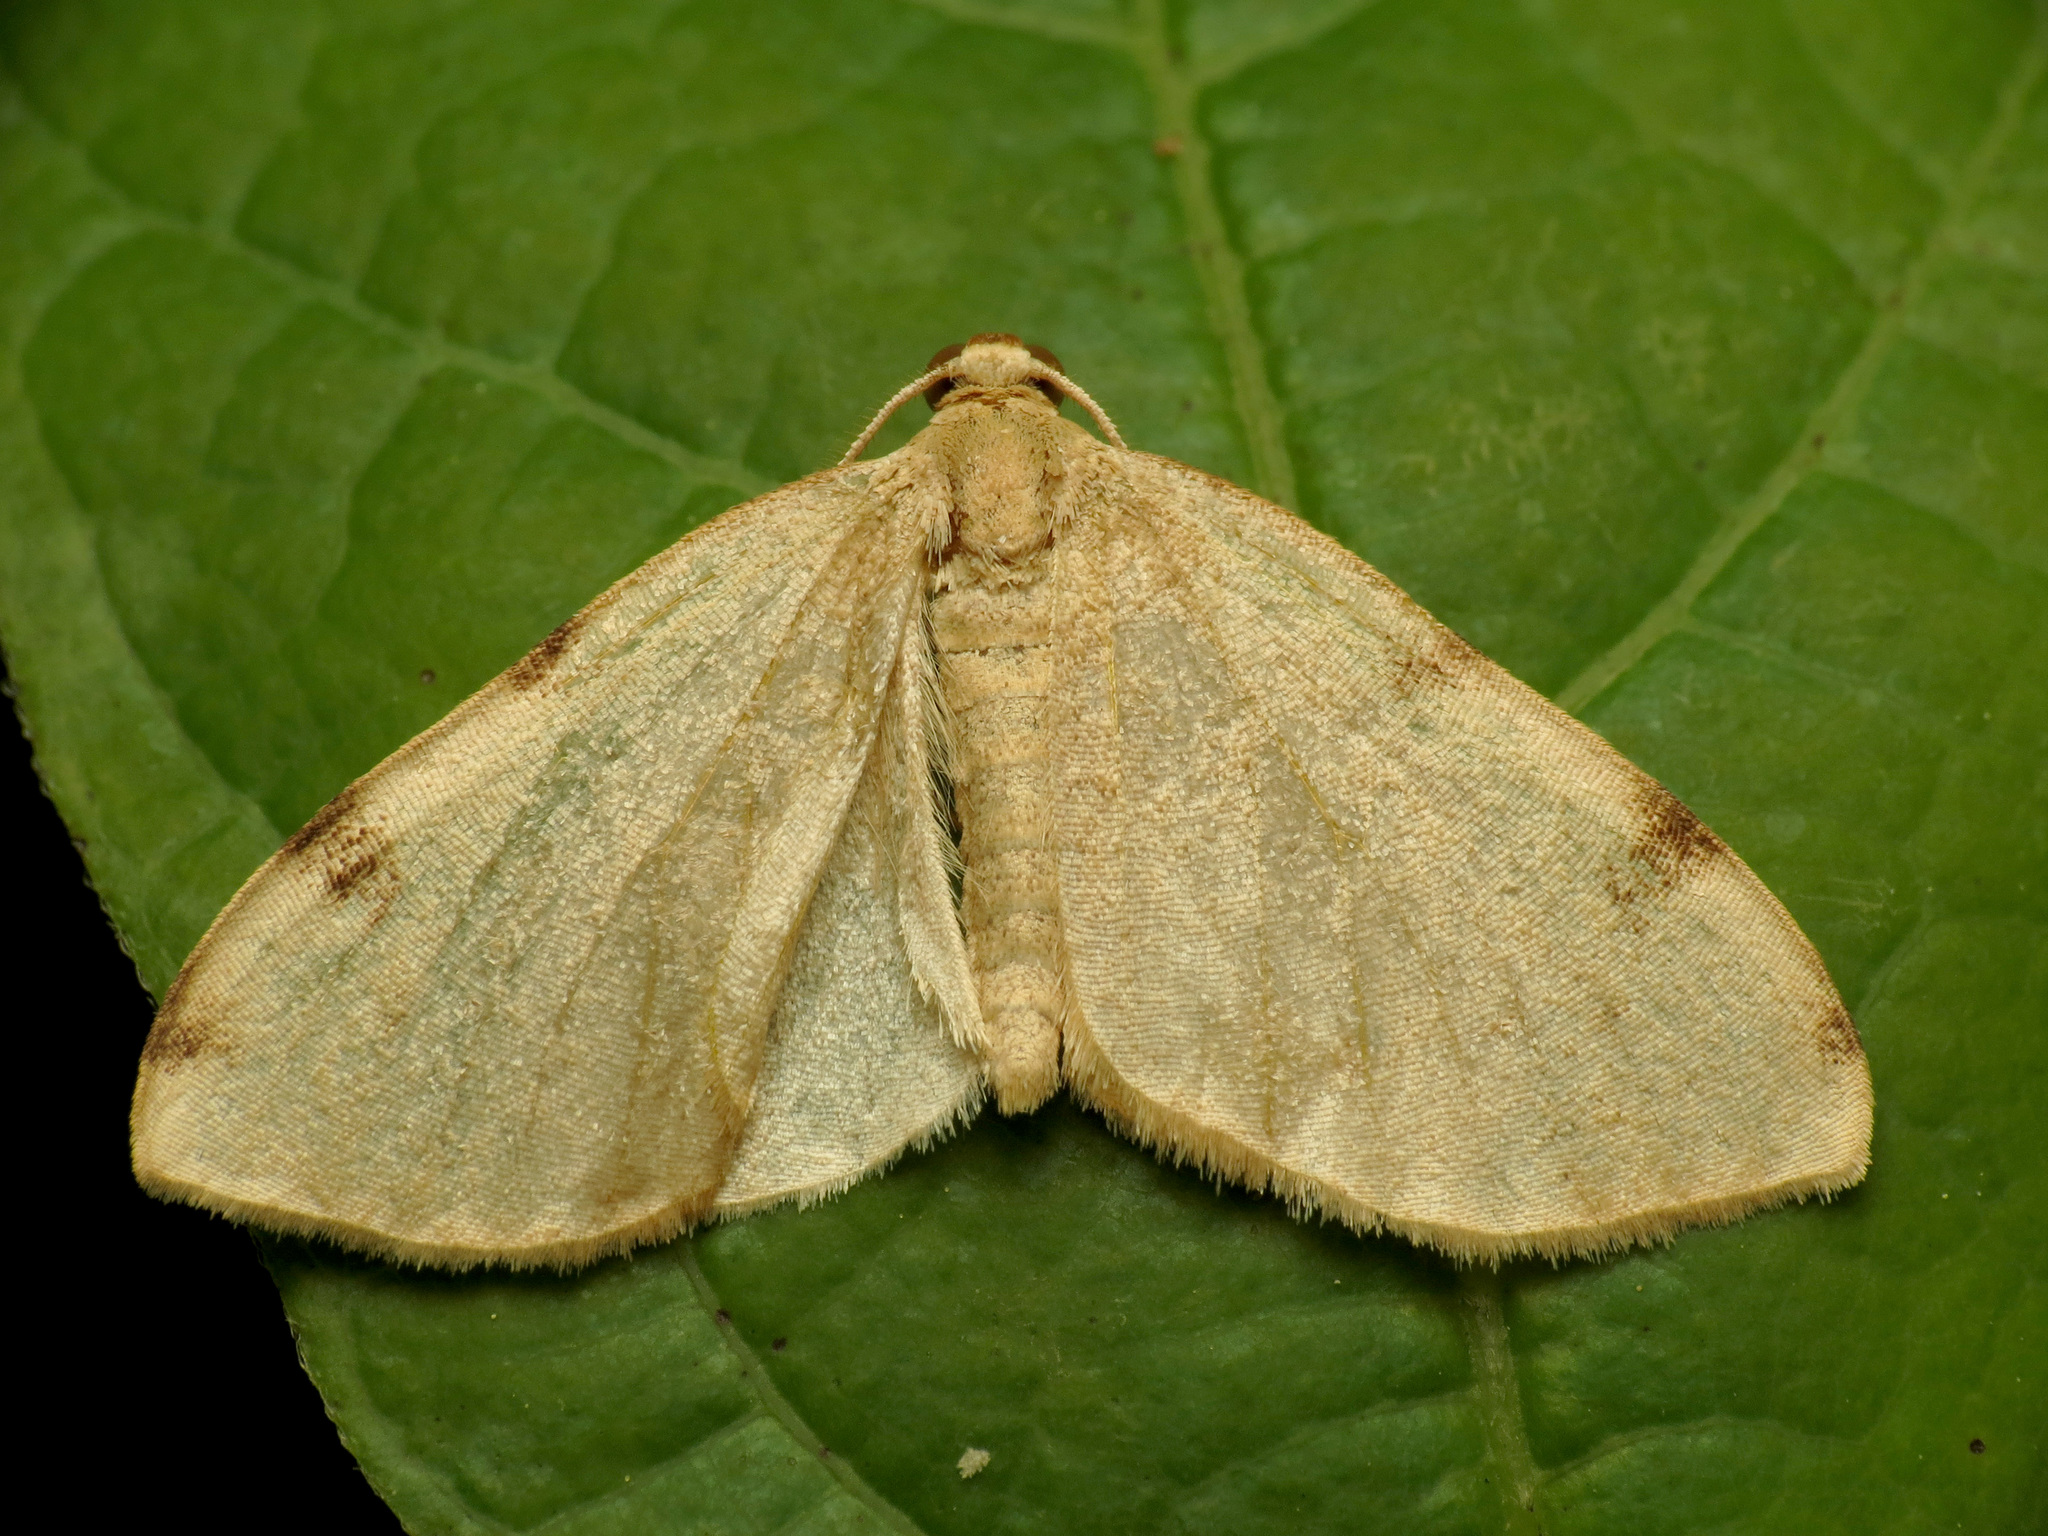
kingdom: Animalia
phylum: Arthropoda
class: Insecta
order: Lepidoptera
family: Geometridae
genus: Heterophleps
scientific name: Heterophleps triguttaria
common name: Three-spotted fillip
